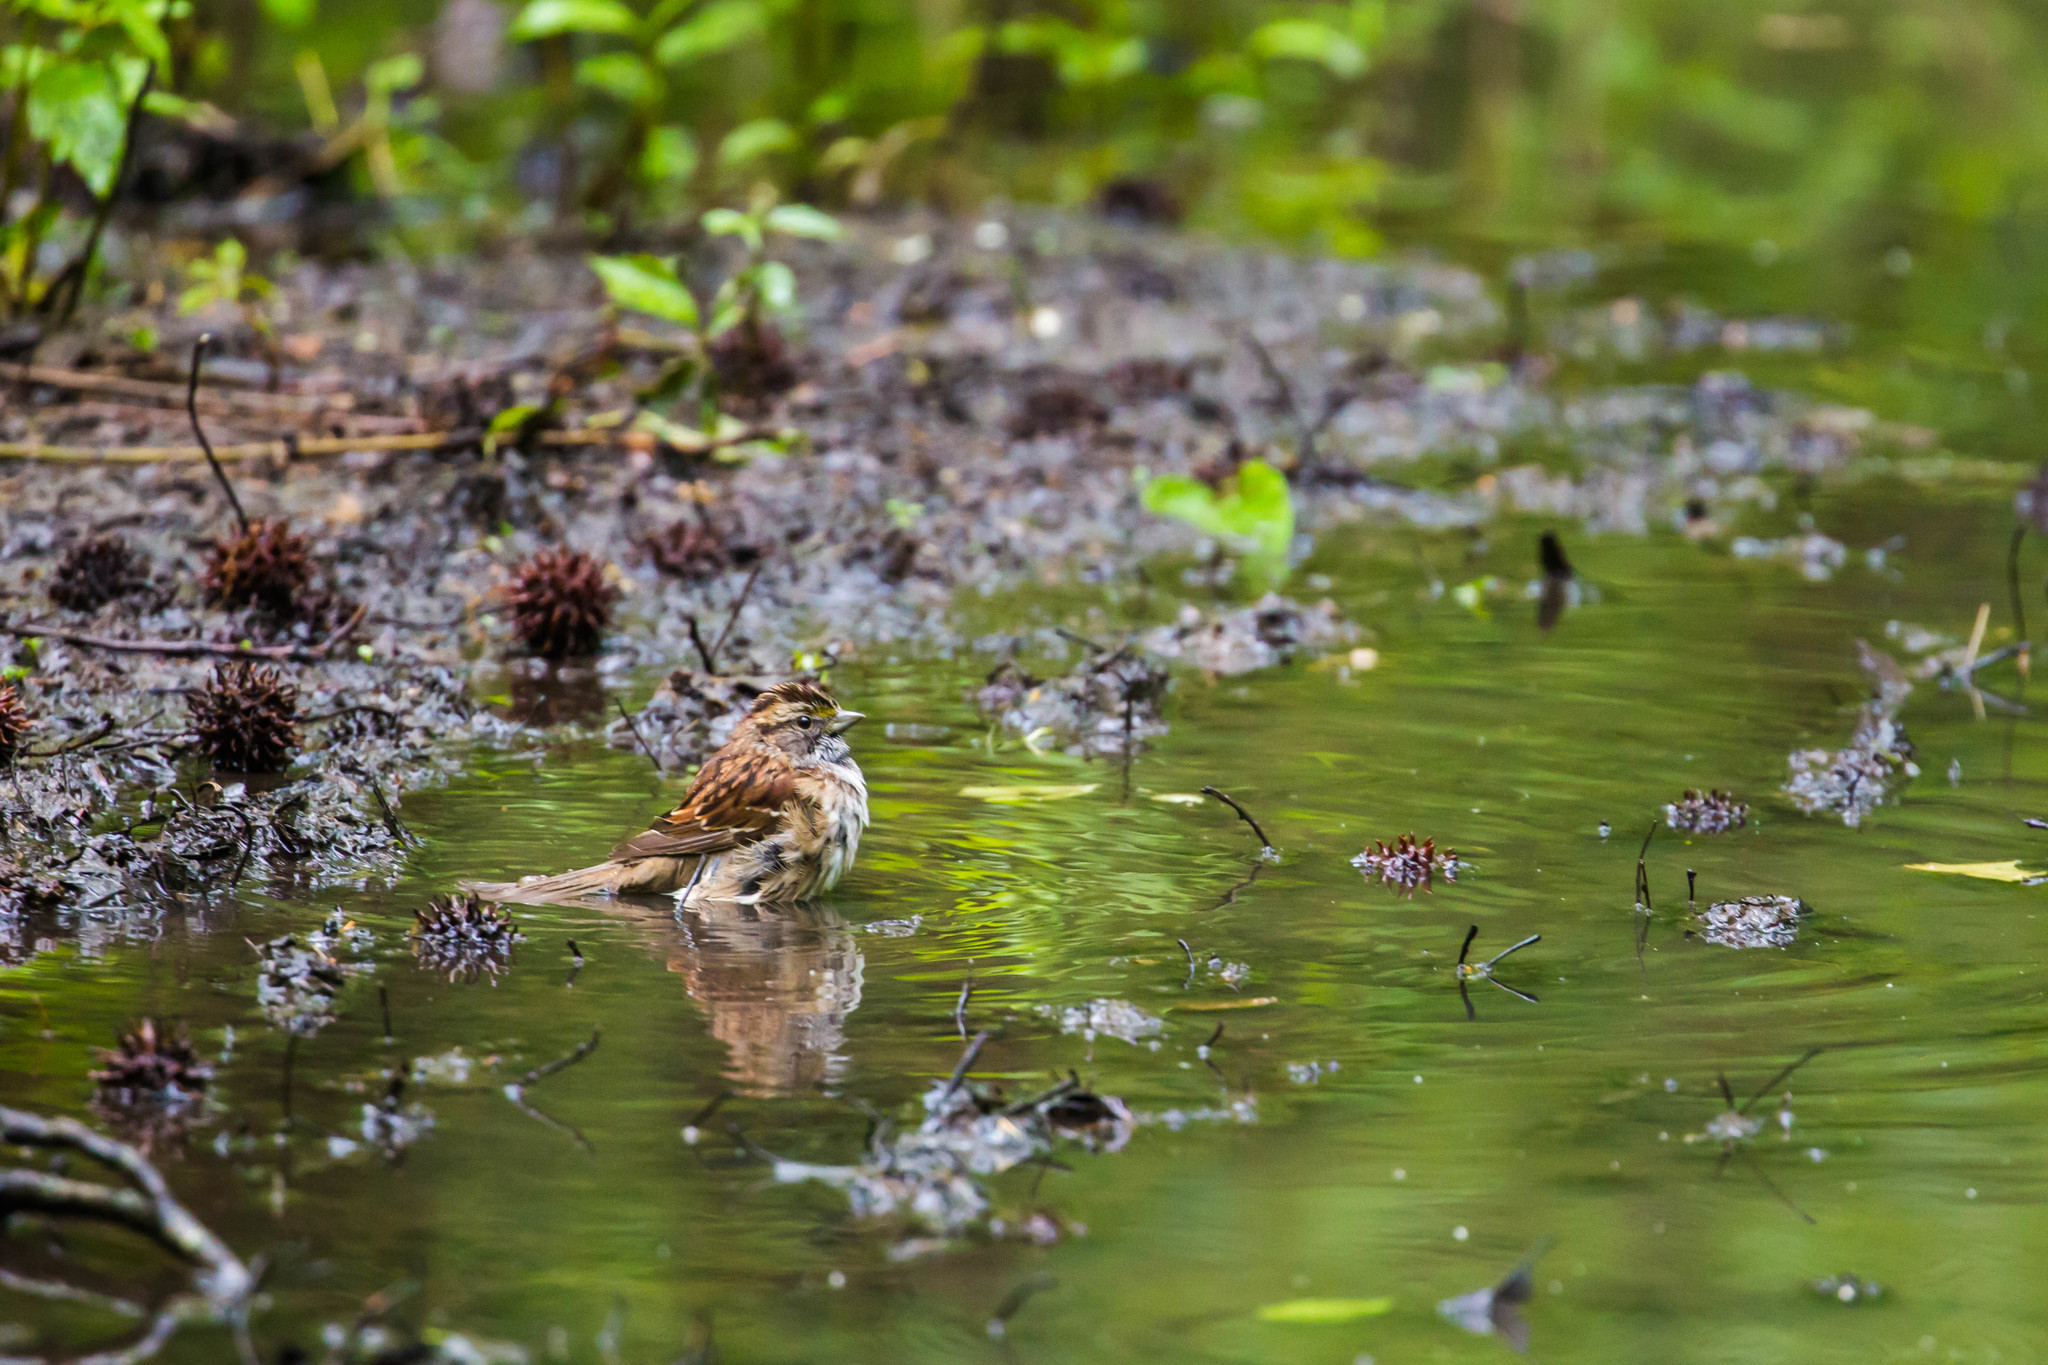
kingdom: Animalia
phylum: Chordata
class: Aves
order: Passeriformes
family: Passerellidae
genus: Zonotrichia
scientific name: Zonotrichia albicollis
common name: White-throated sparrow
